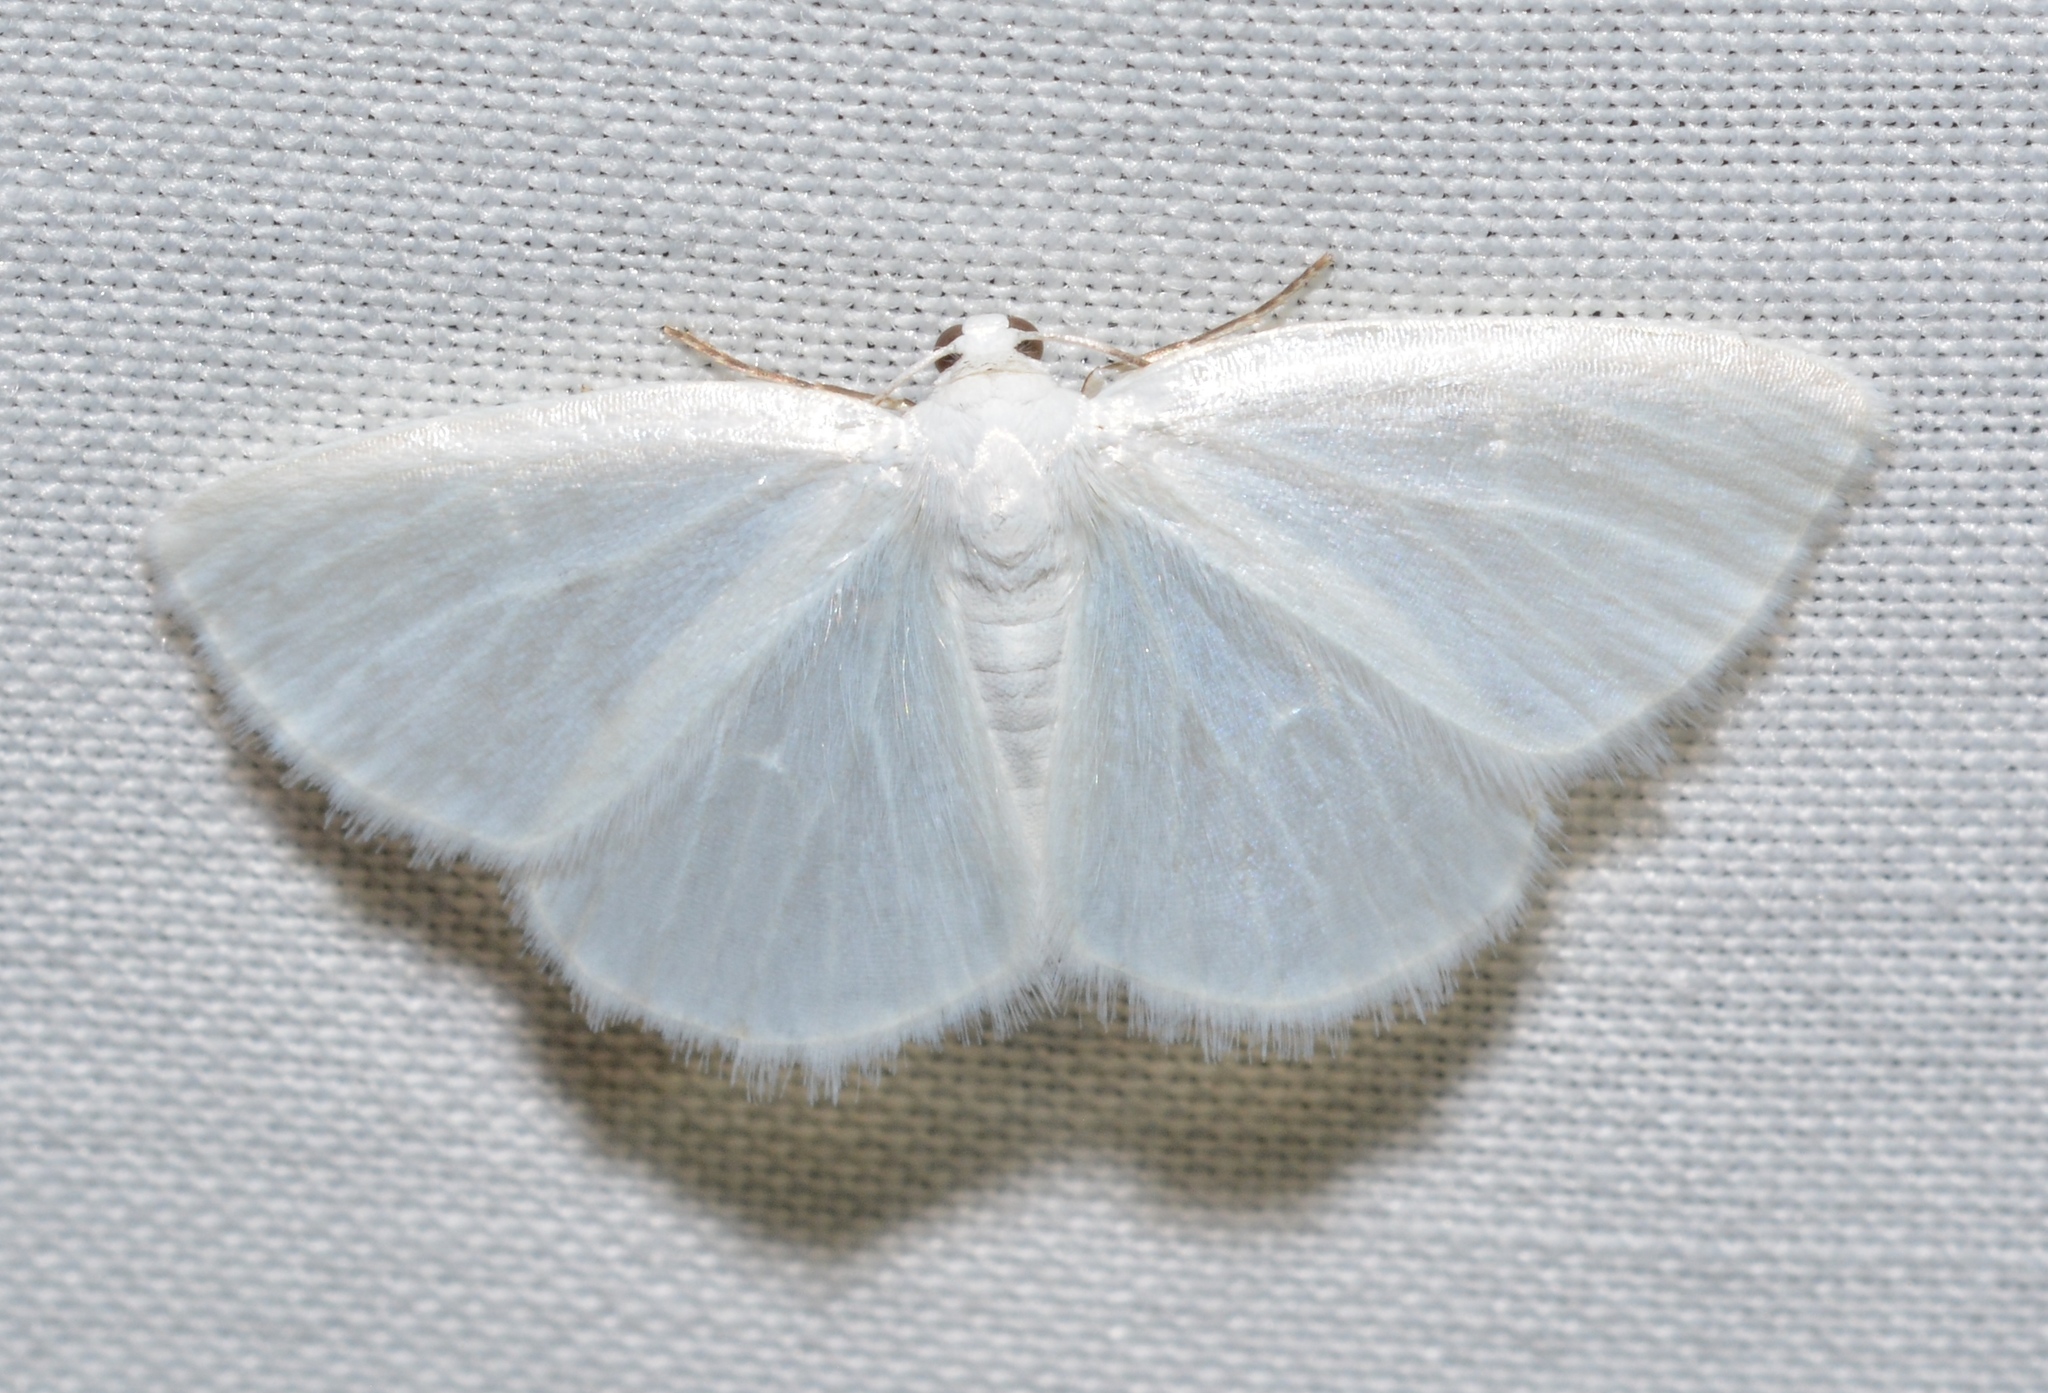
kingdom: Animalia
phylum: Arthropoda
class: Insecta
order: Lepidoptera
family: Geometridae
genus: Lomographa
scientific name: Lomographa vestaliata
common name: White spring moth
